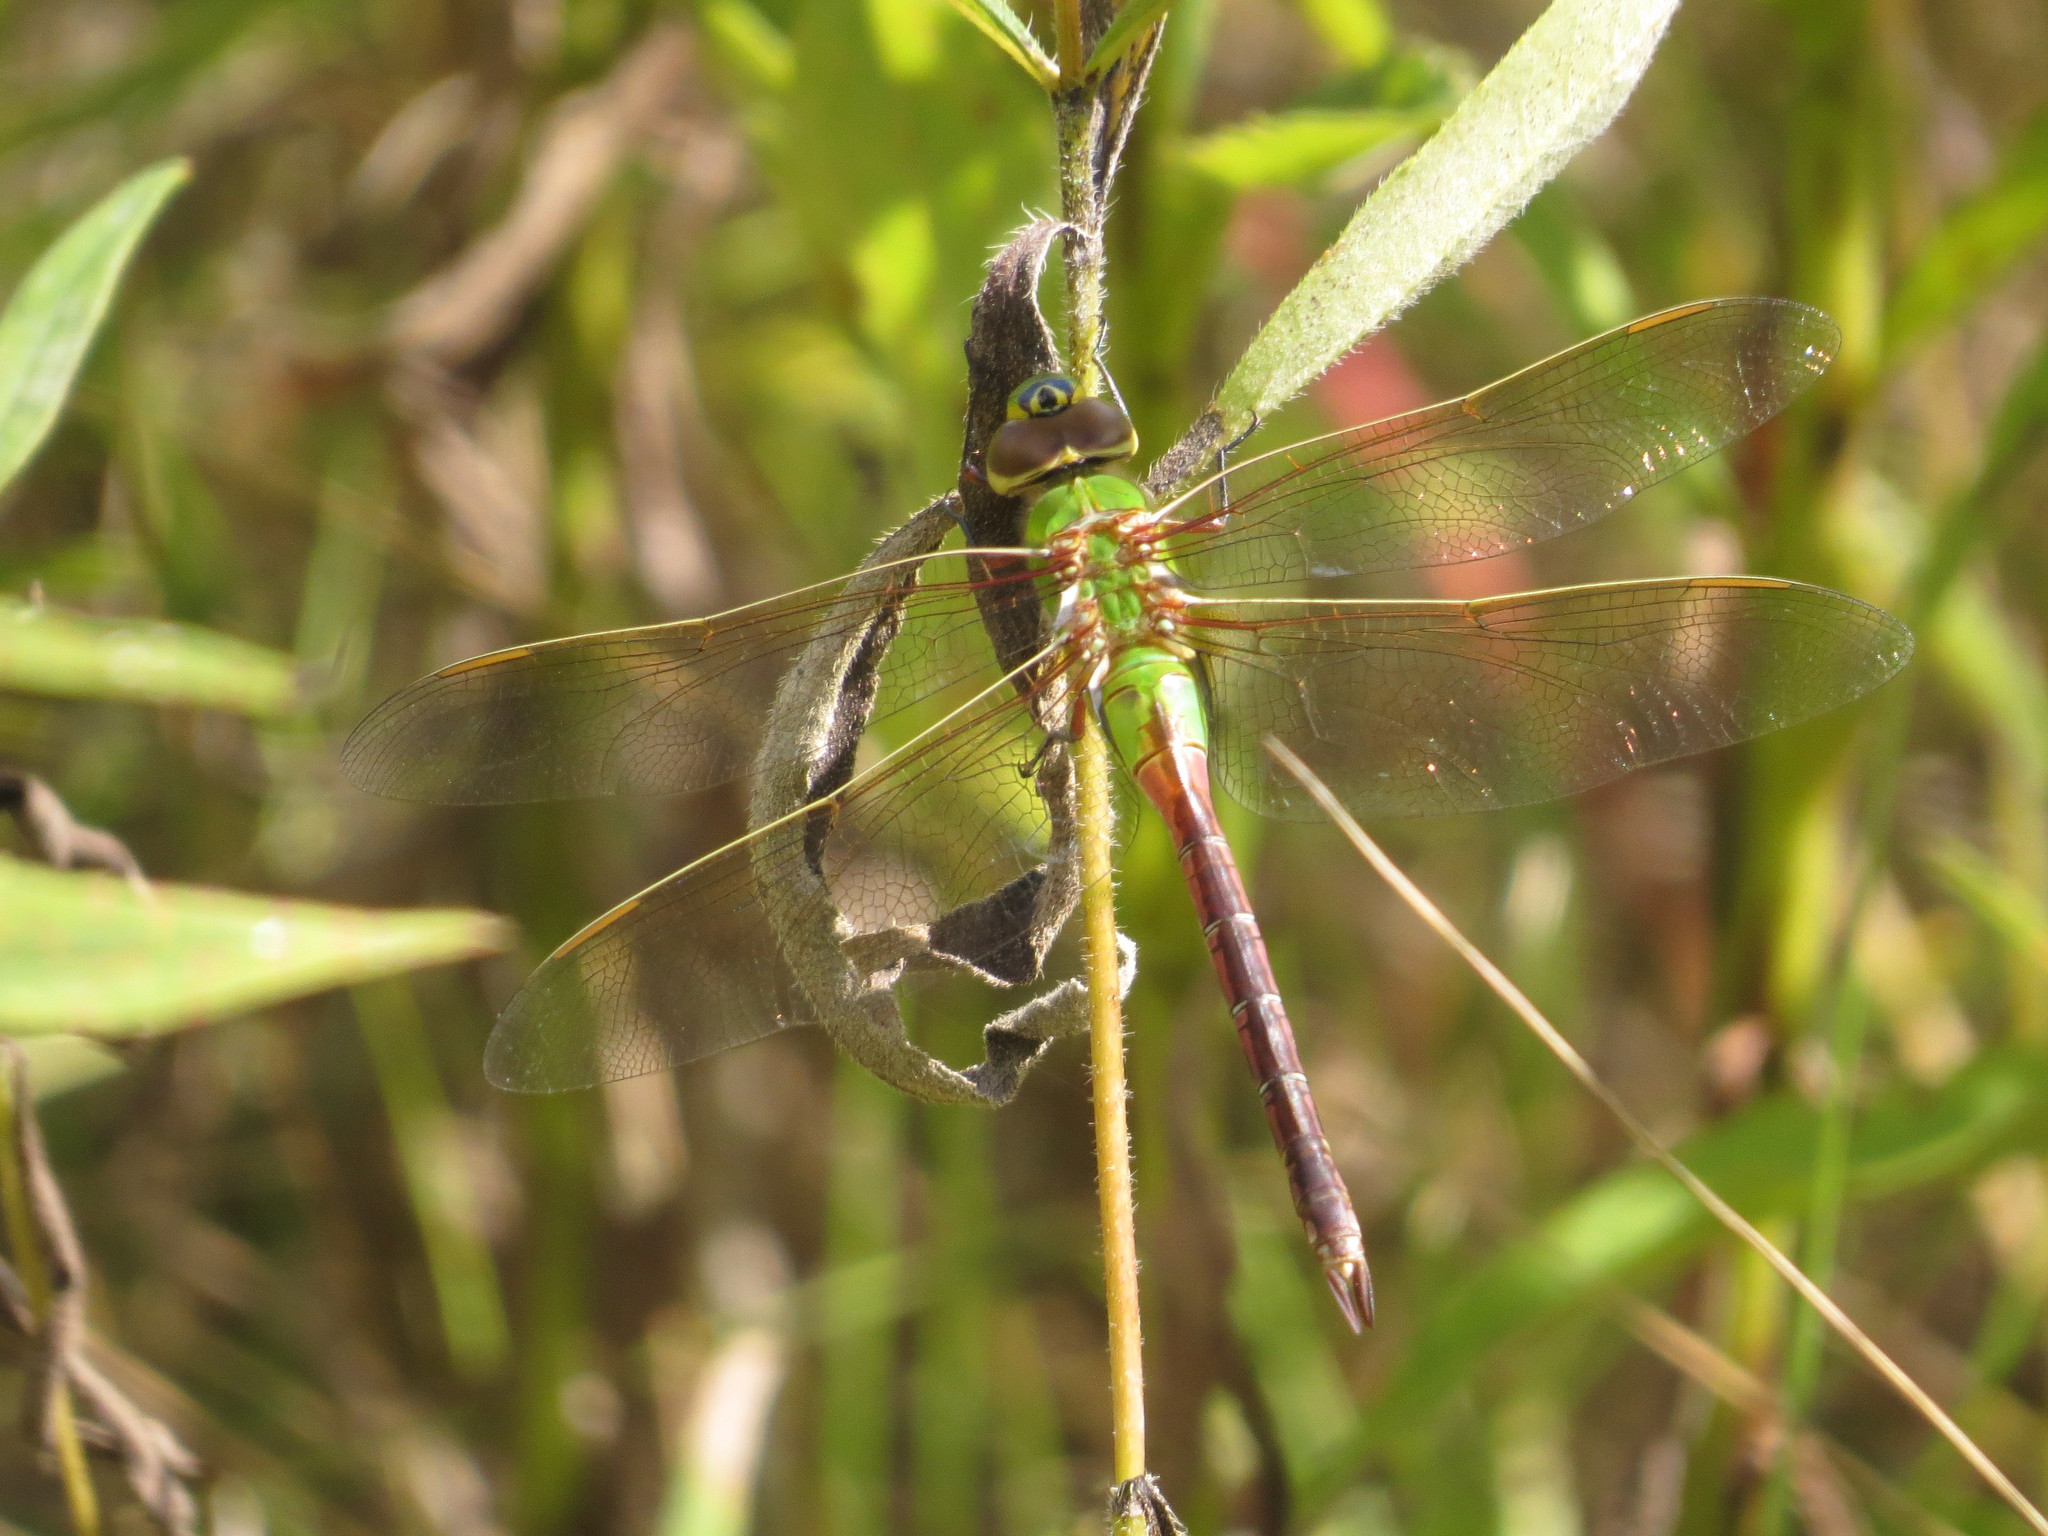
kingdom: Animalia
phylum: Arthropoda
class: Insecta
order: Odonata
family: Aeshnidae
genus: Anax
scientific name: Anax junius
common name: Common green darner
